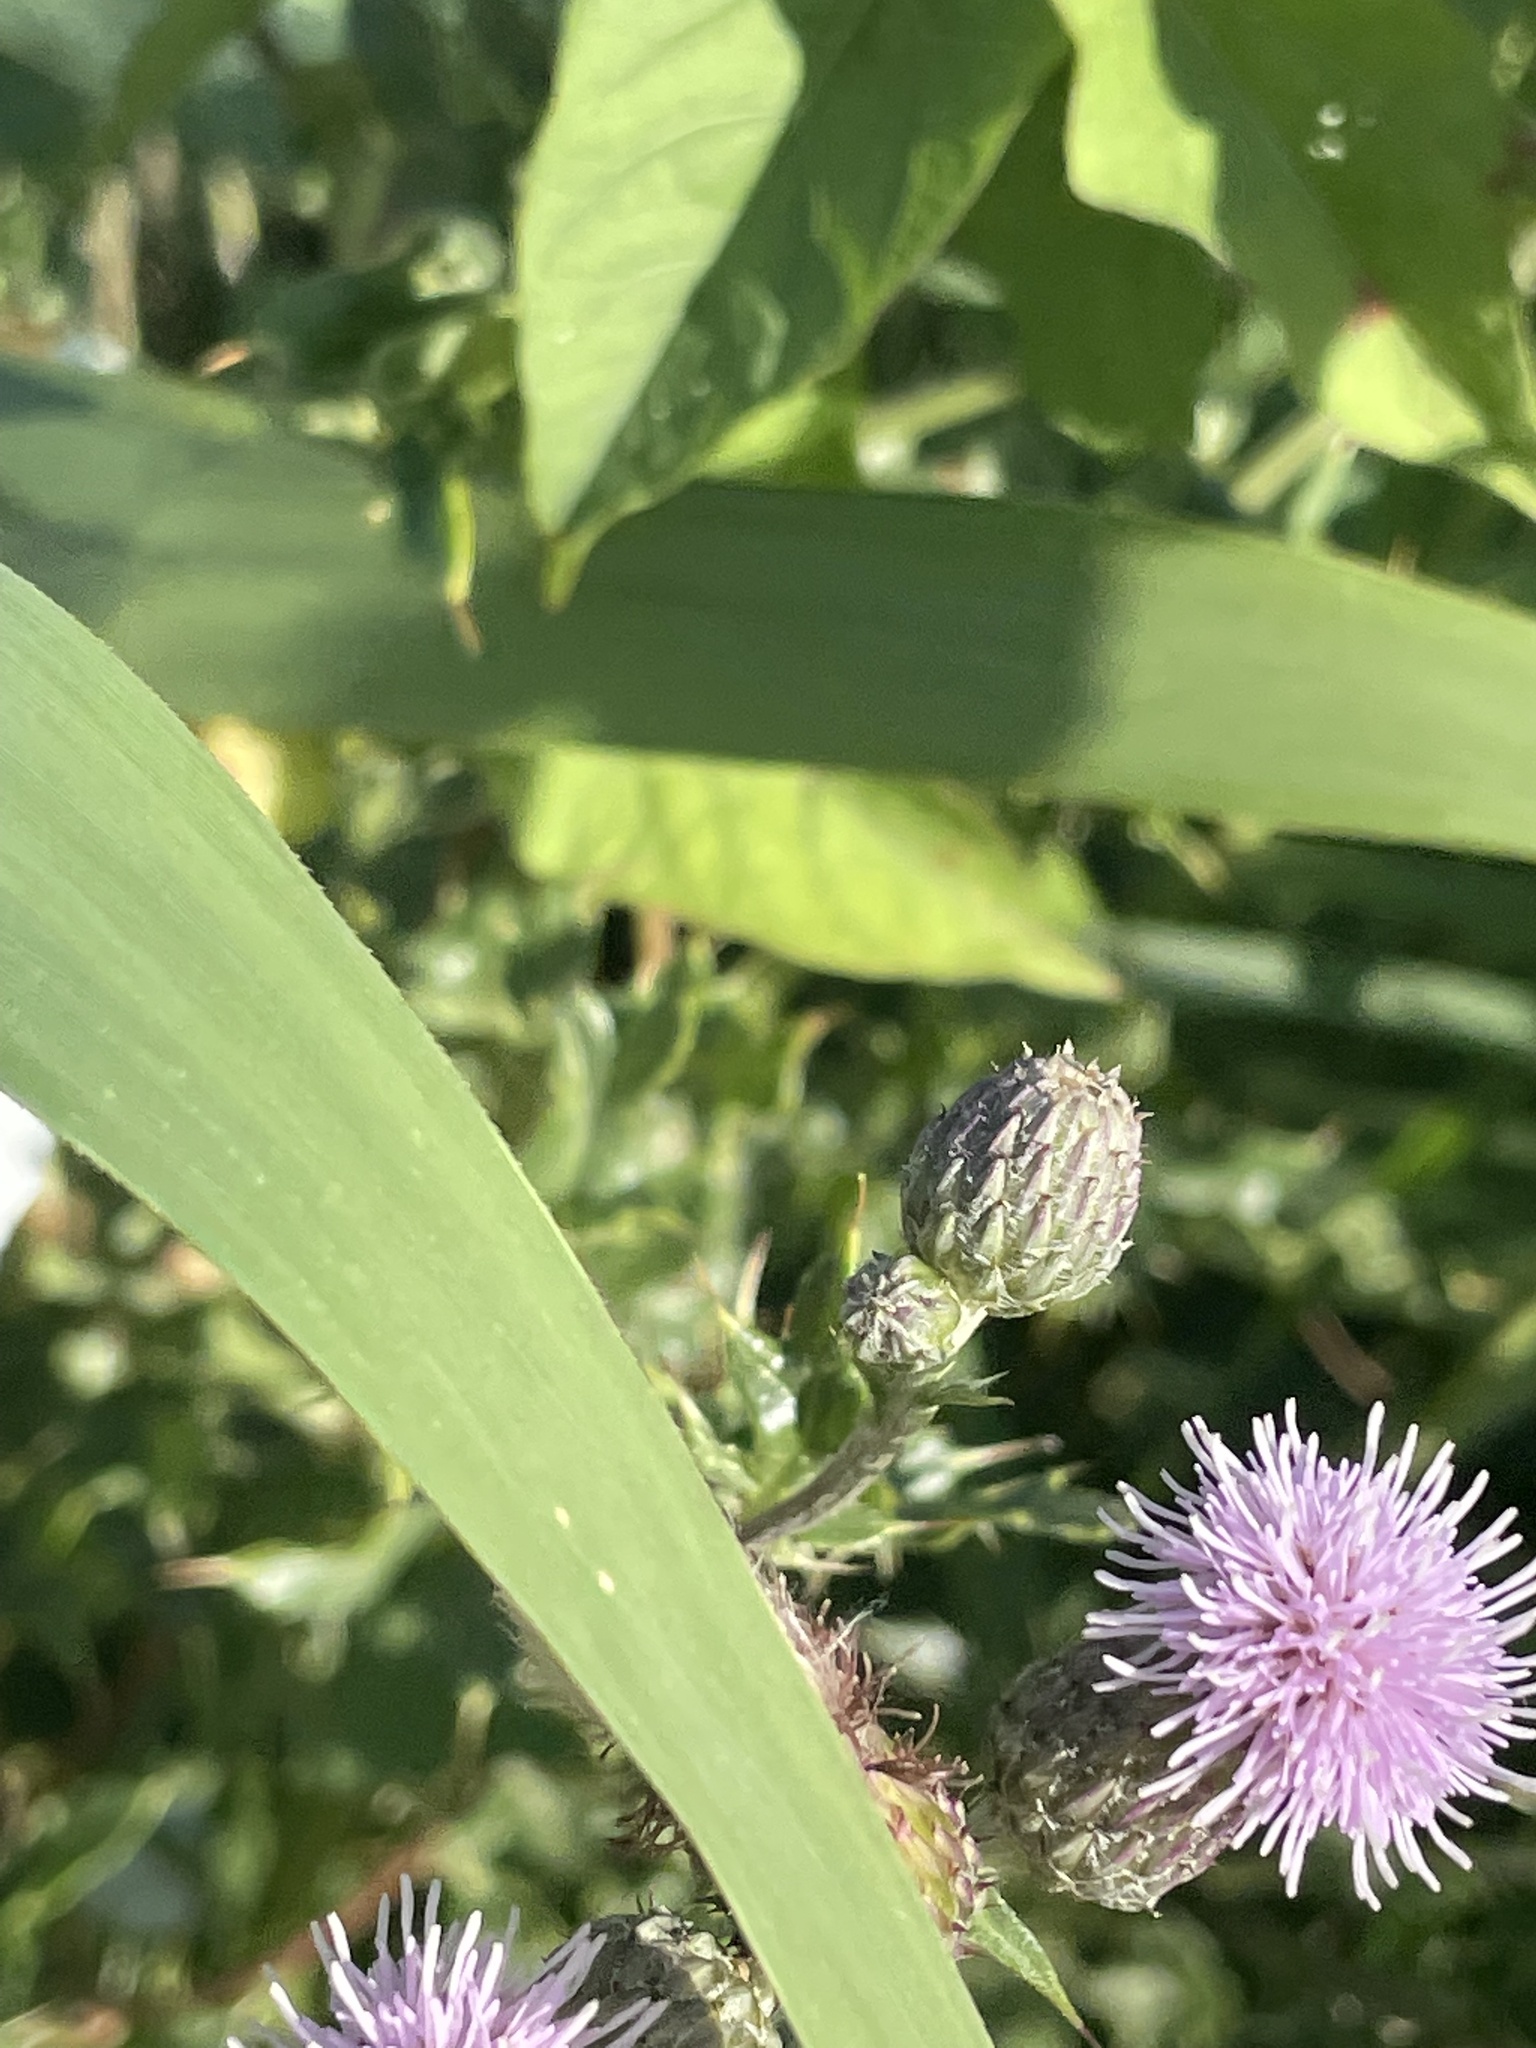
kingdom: Plantae
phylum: Tracheophyta
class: Magnoliopsida
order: Asterales
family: Asteraceae
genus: Cirsium
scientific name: Cirsium arvense
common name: Creeping thistle
